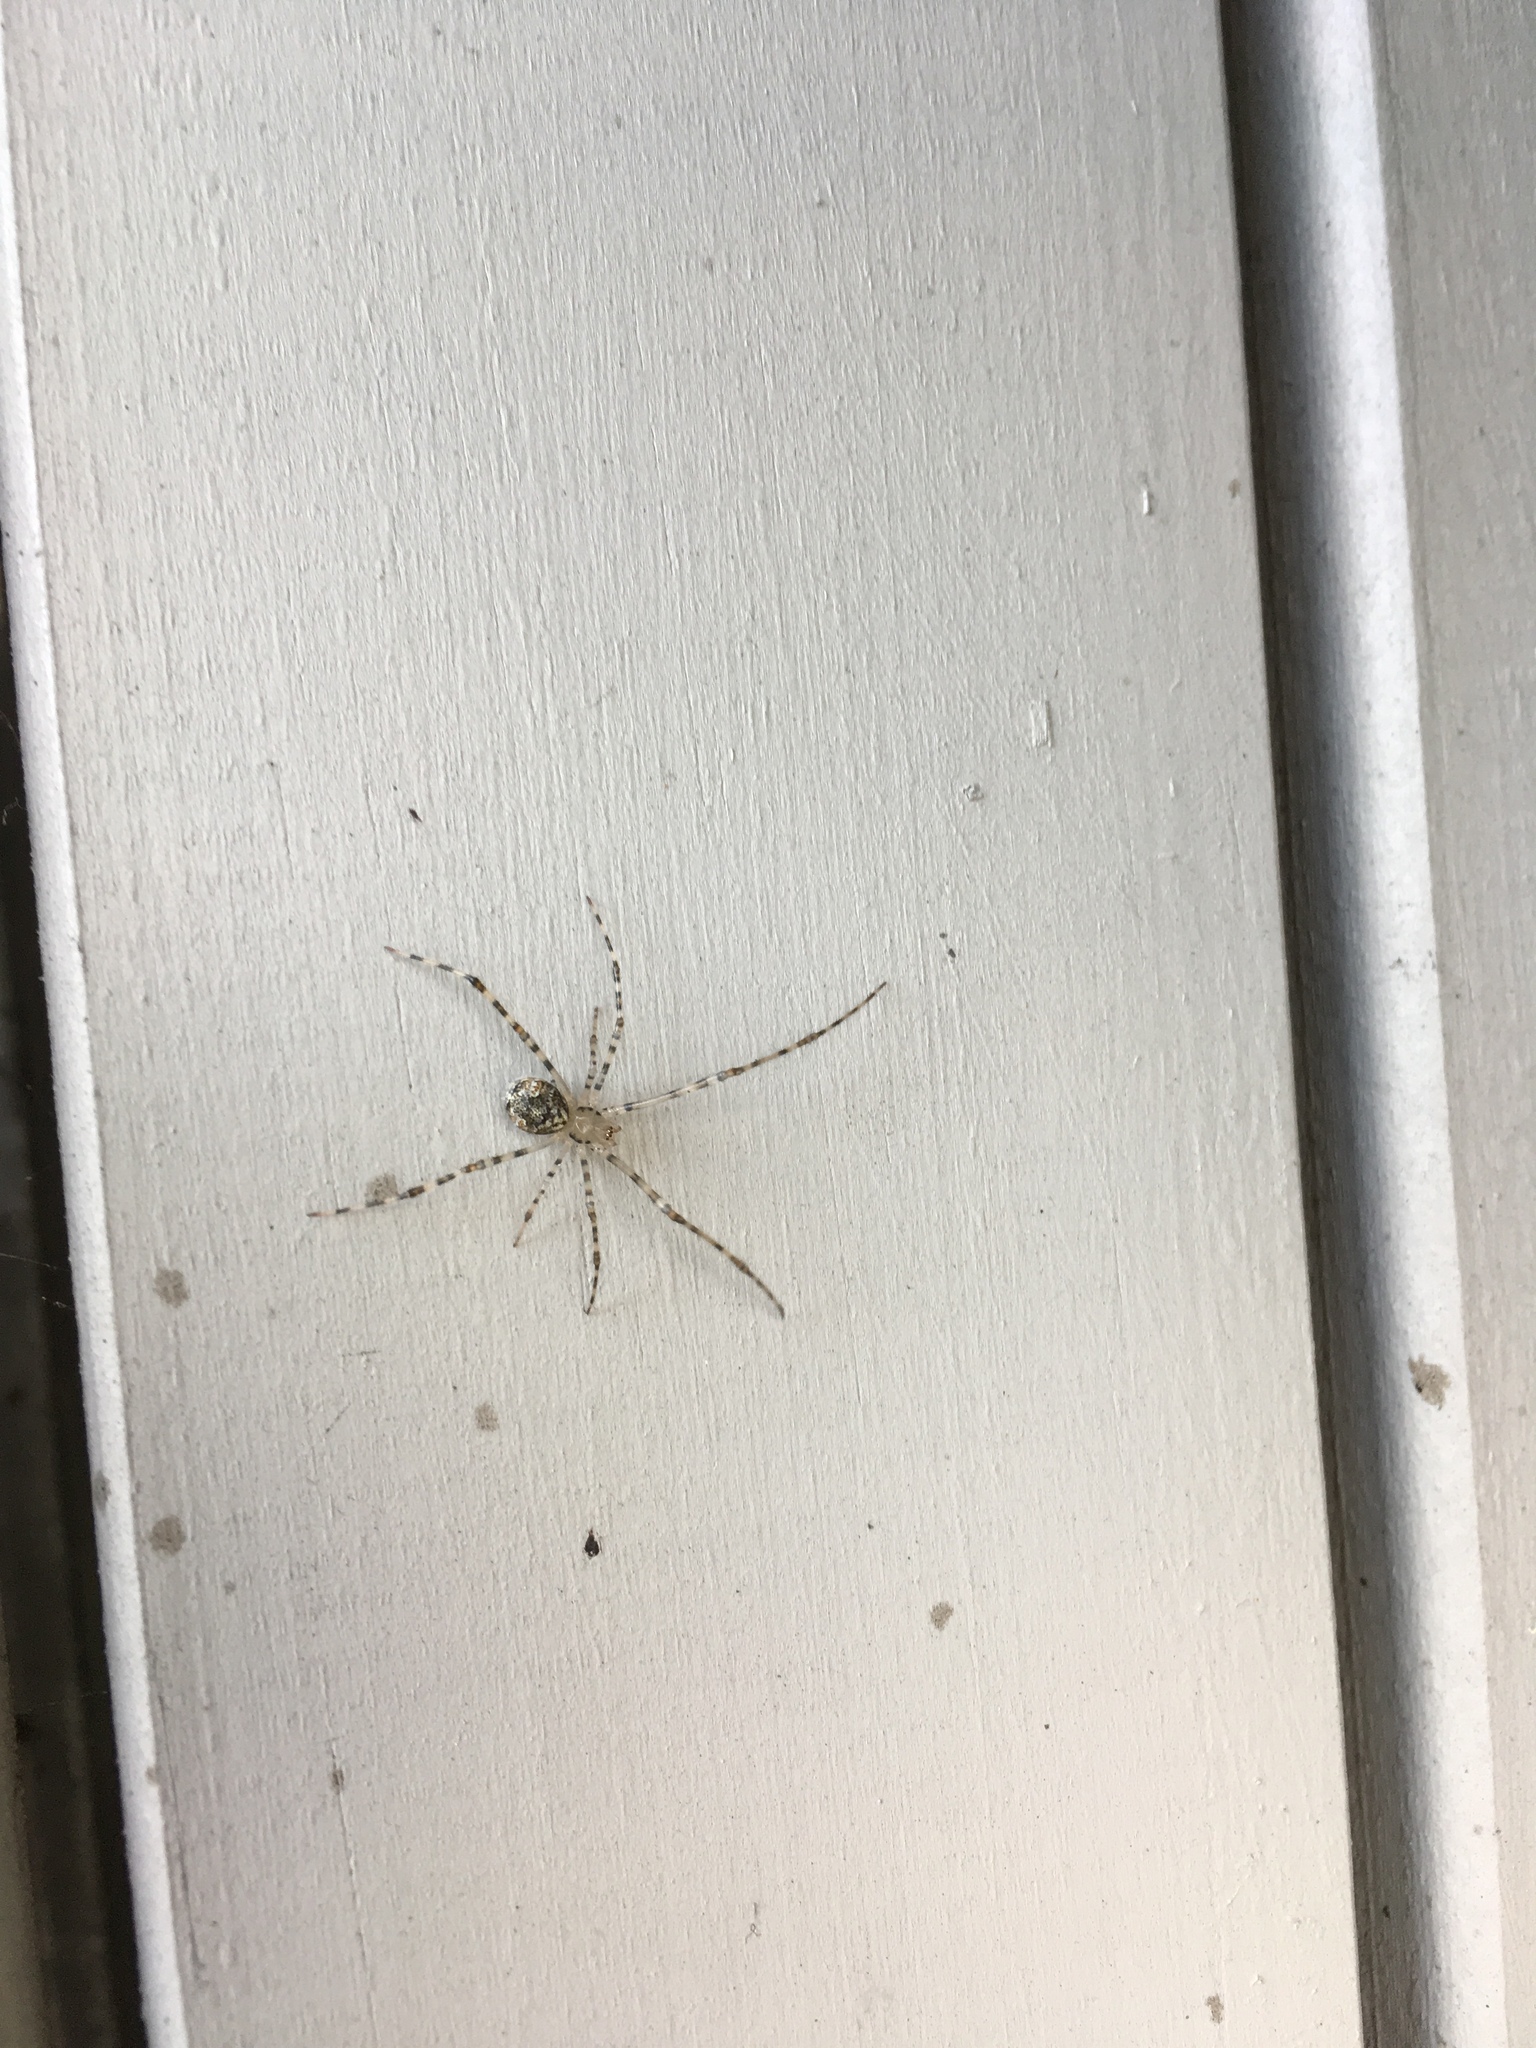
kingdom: Animalia
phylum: Arthropoda
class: Arachnida
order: Araneae
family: Theridiidae
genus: Cryptachaea
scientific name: Cryptachaea gigantipes
